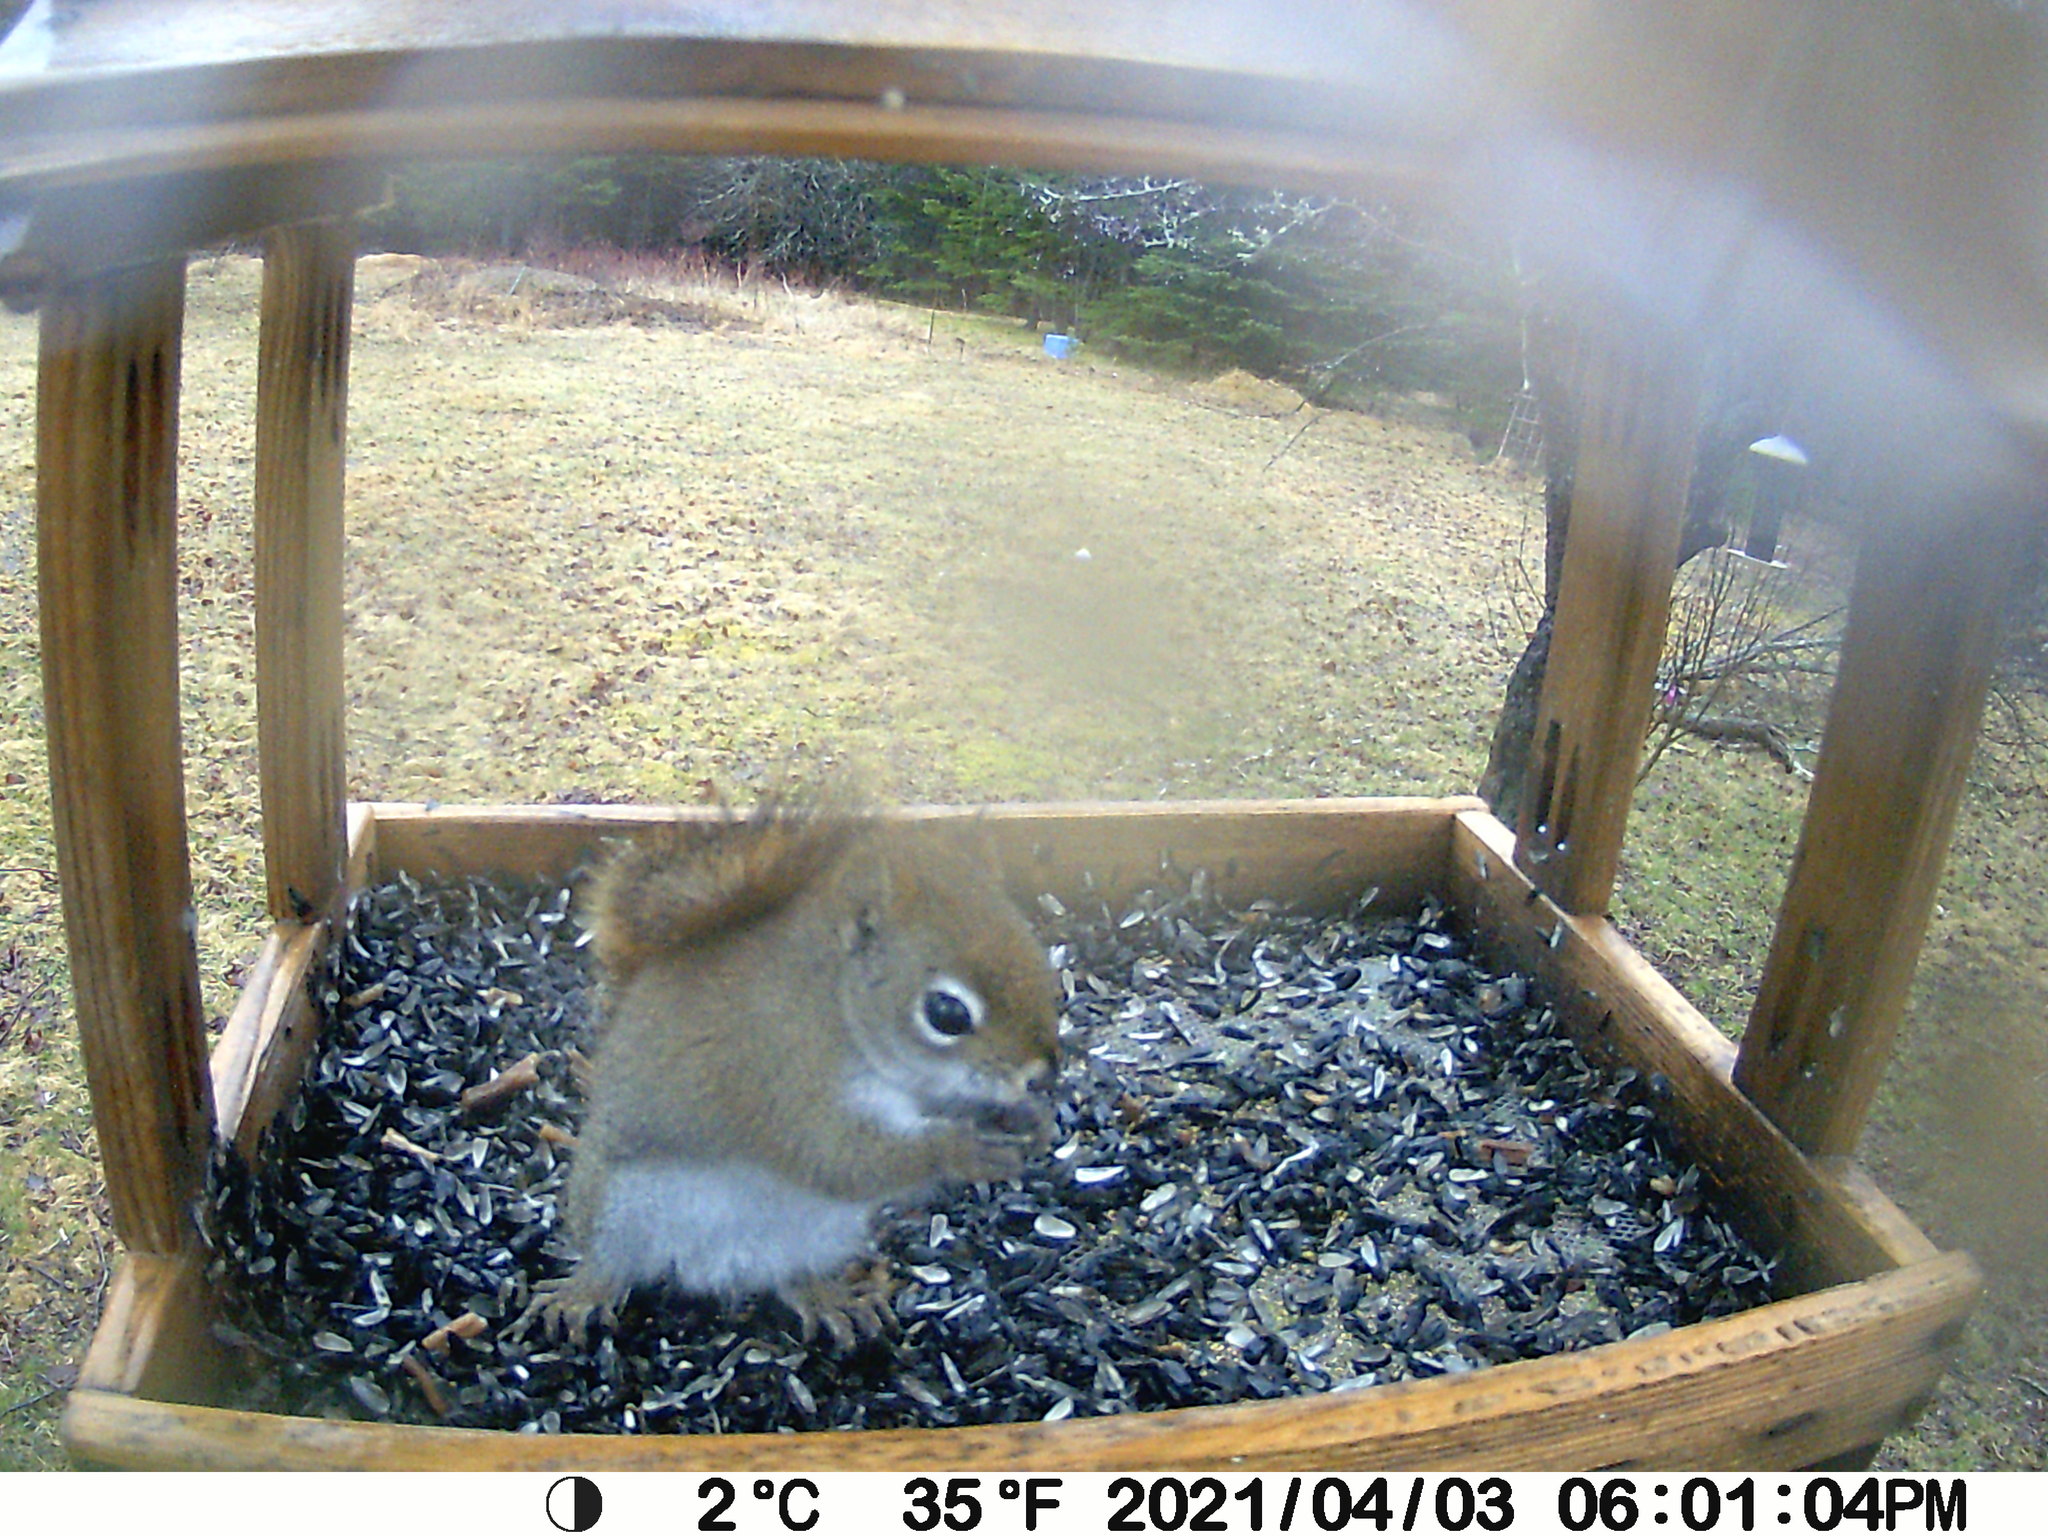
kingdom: Animalia
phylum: Chordata
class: Mammalia
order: Rodentia
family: Sciuridae
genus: Tamiasciurus
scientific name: Tamiasciurus hudsonicus
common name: Red squirrel
